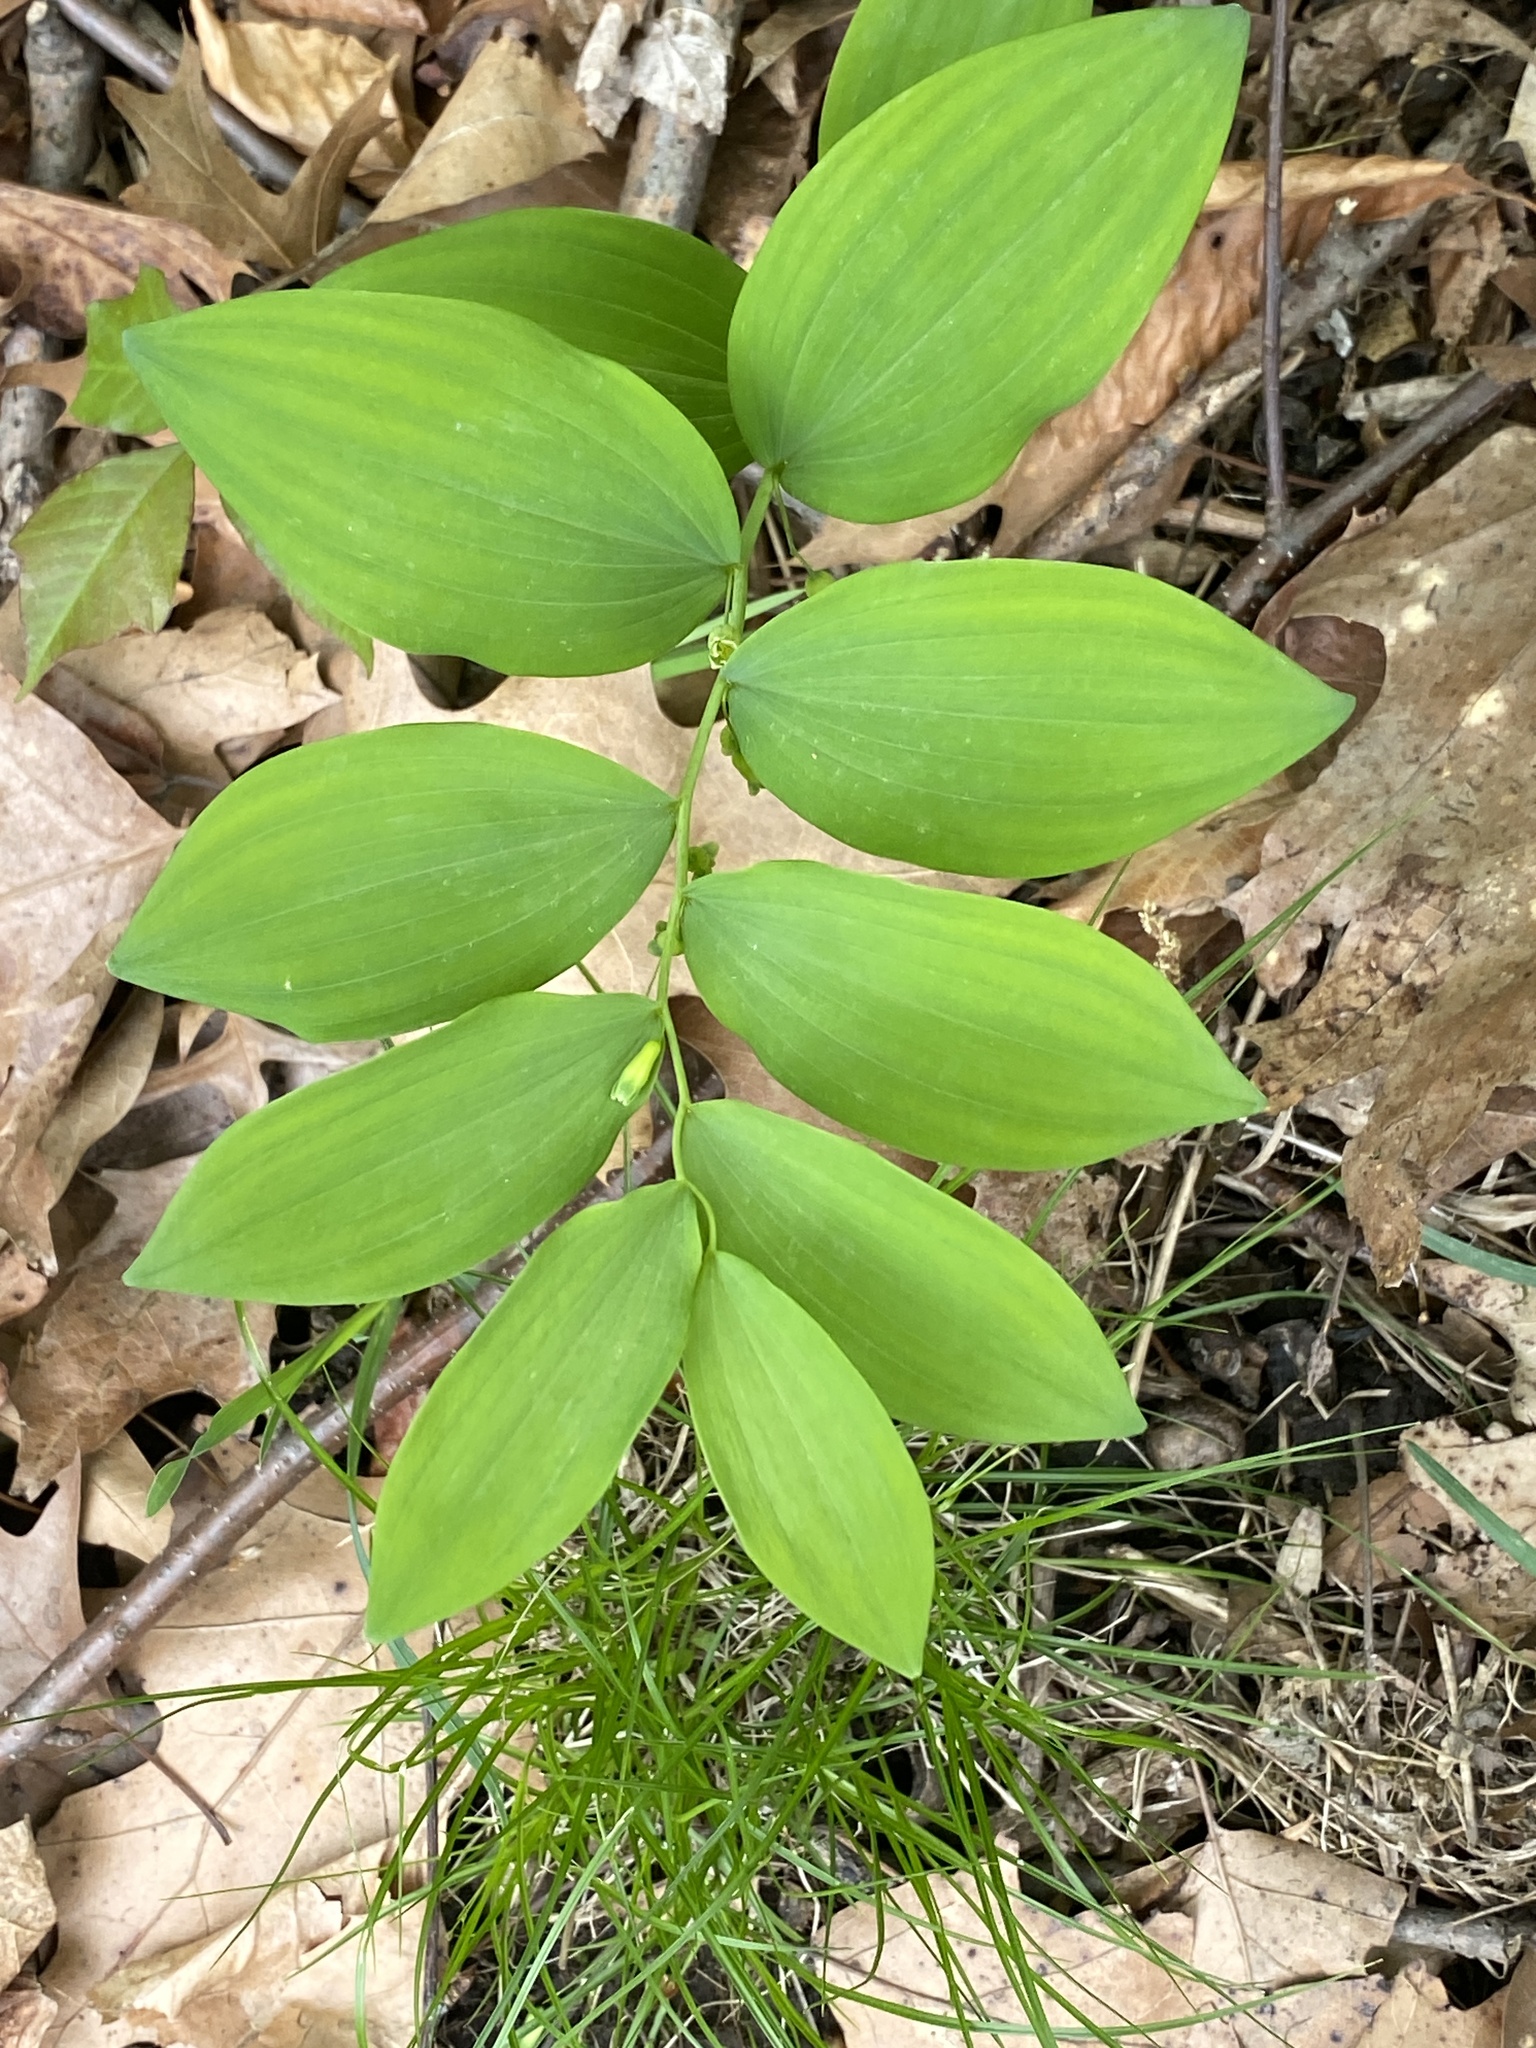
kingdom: Plantae
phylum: Tracheophyta
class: Liliopsida
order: Asparagales
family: Asparagaceae
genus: Polygonatum
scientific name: Polygonatum pubescens
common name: Downy solomon's seal
